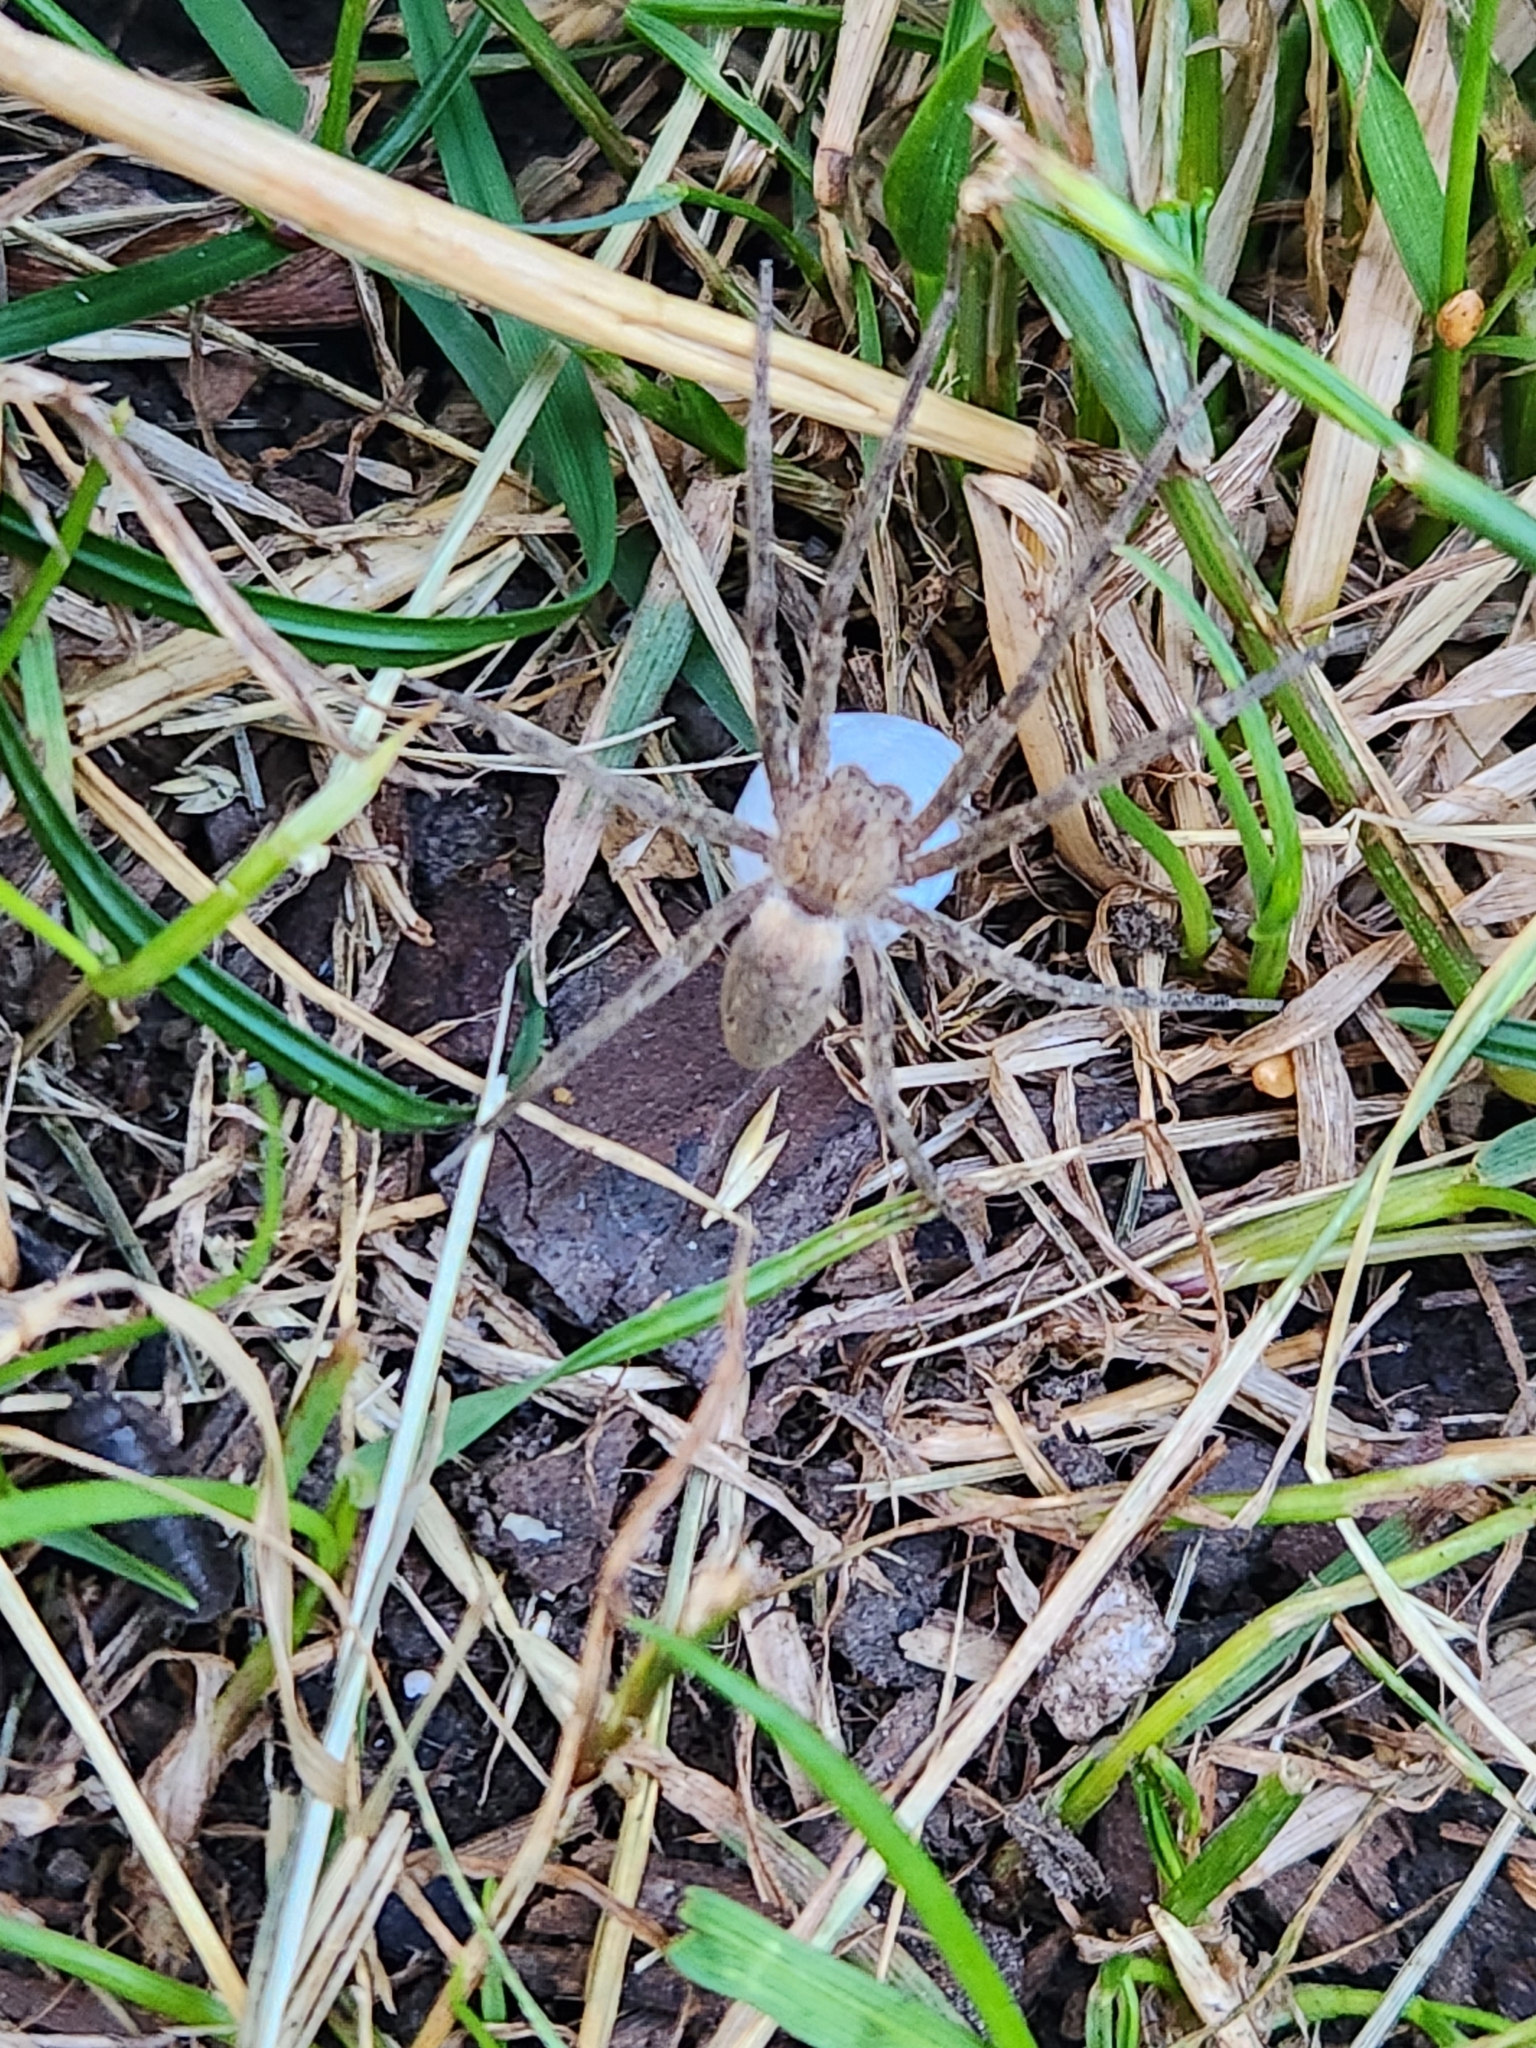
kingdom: Animalia
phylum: Arthropoda
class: Arachnida
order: Araneae
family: Pisauridae
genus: Pisaurina
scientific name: Pisaurina mira
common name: American nursery web spider
